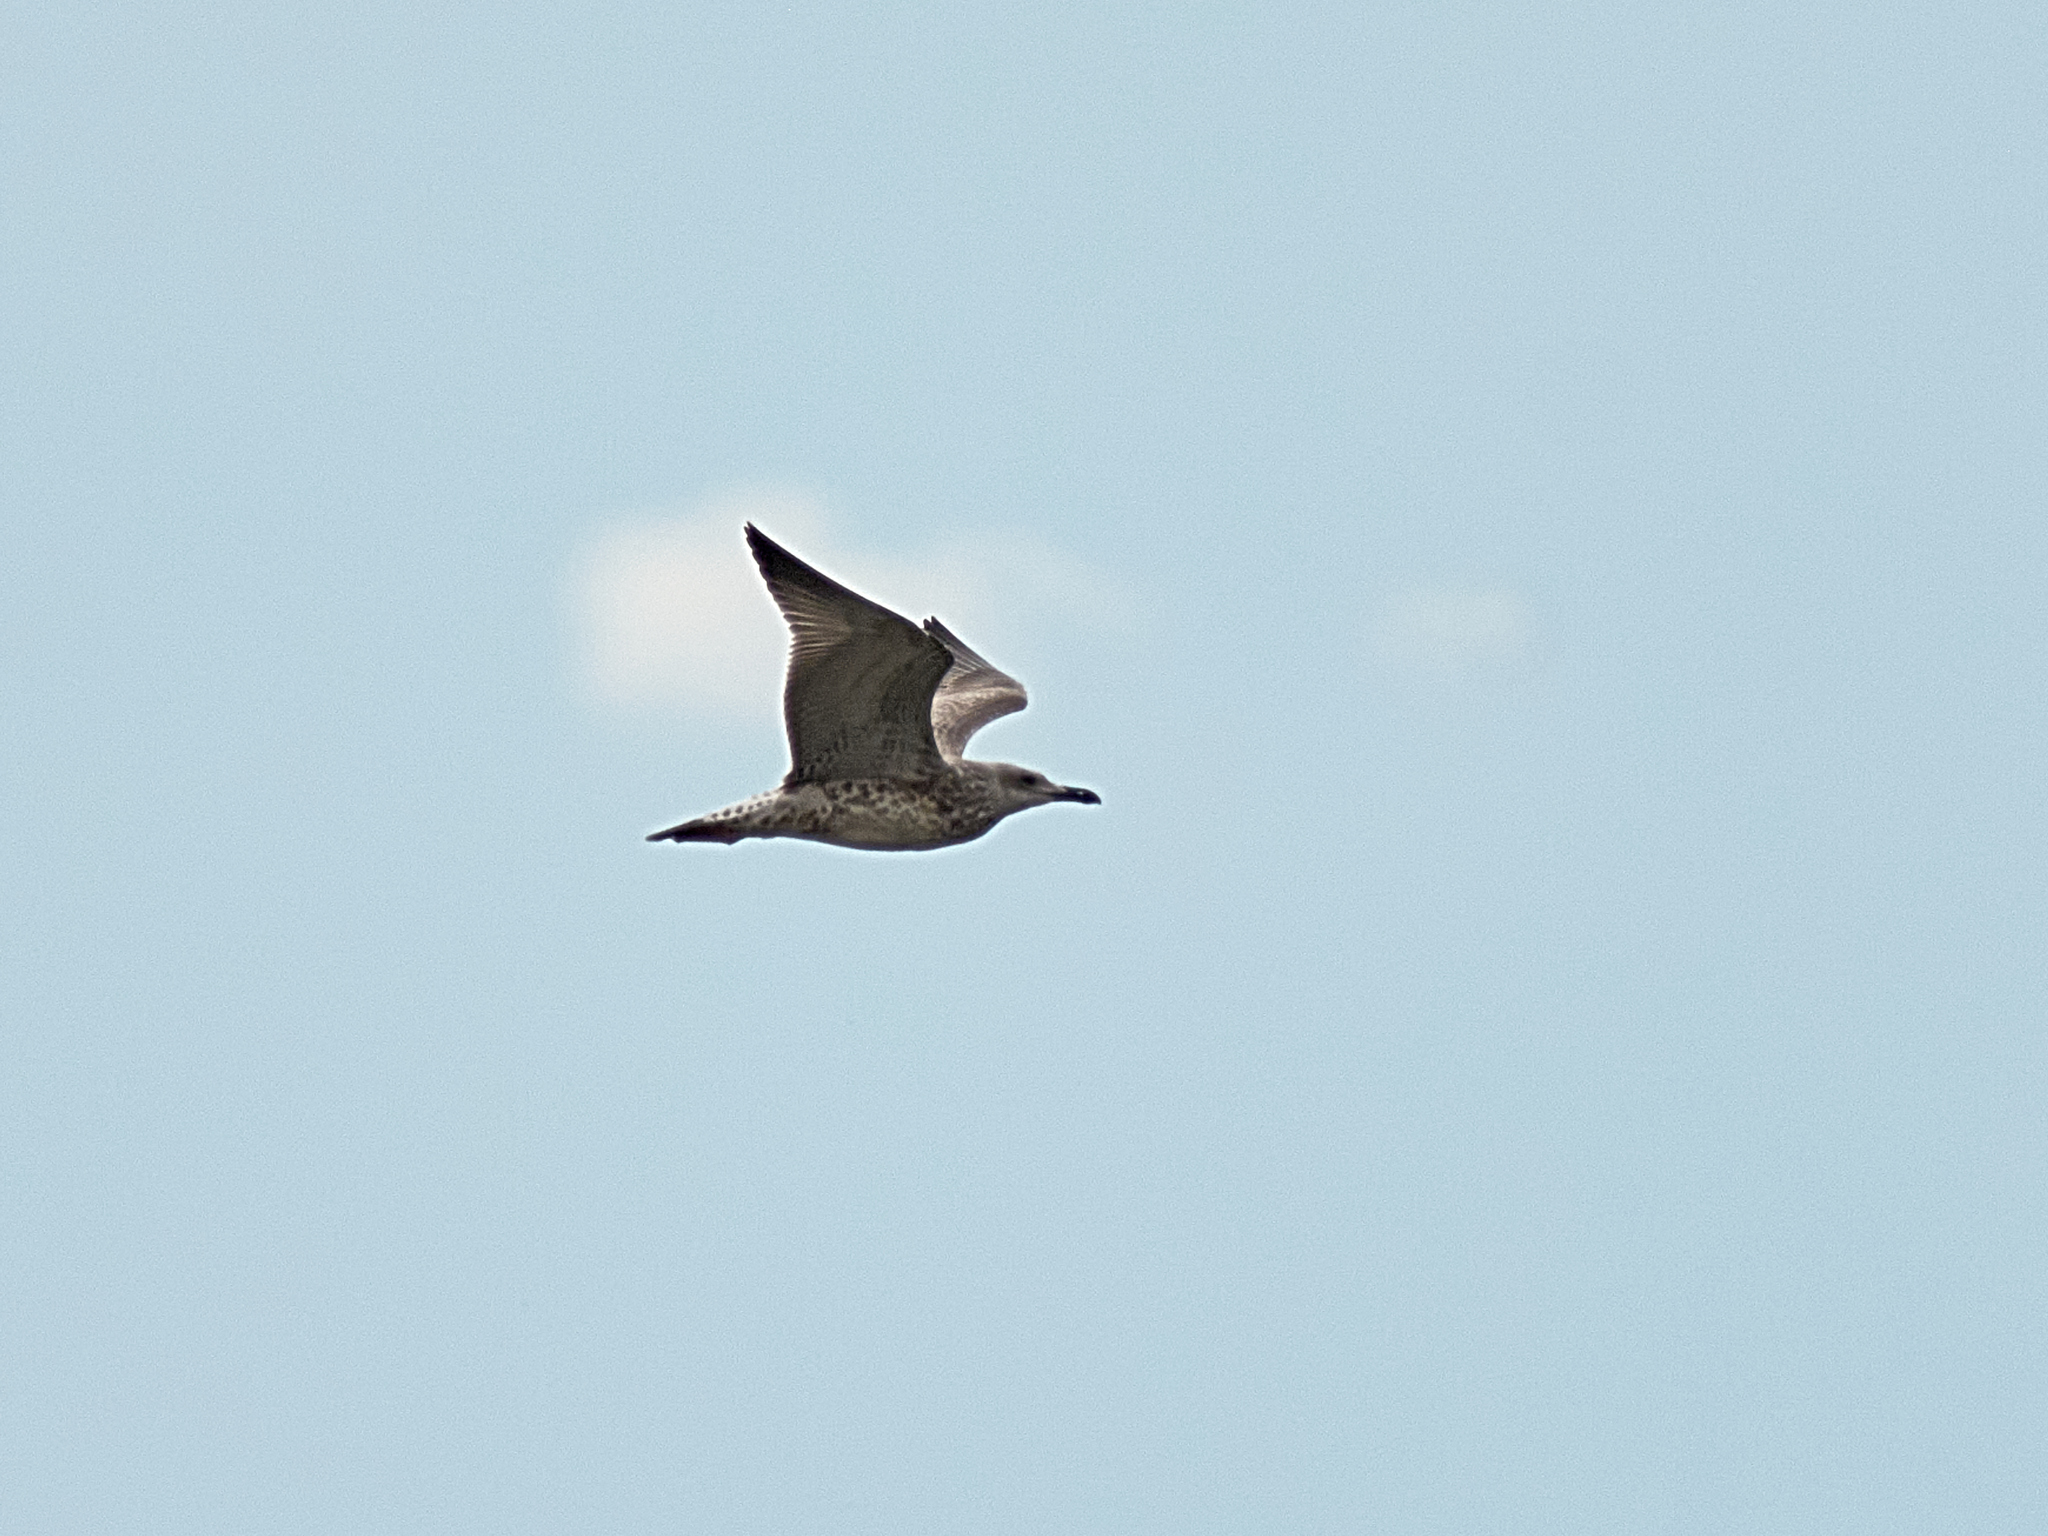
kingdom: Animalia
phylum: Chordata
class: Aves
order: Charadriiformes
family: Laridae
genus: Ichthyaetus
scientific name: Ichthyaetus ichthyaetus
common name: Pallas's gull
